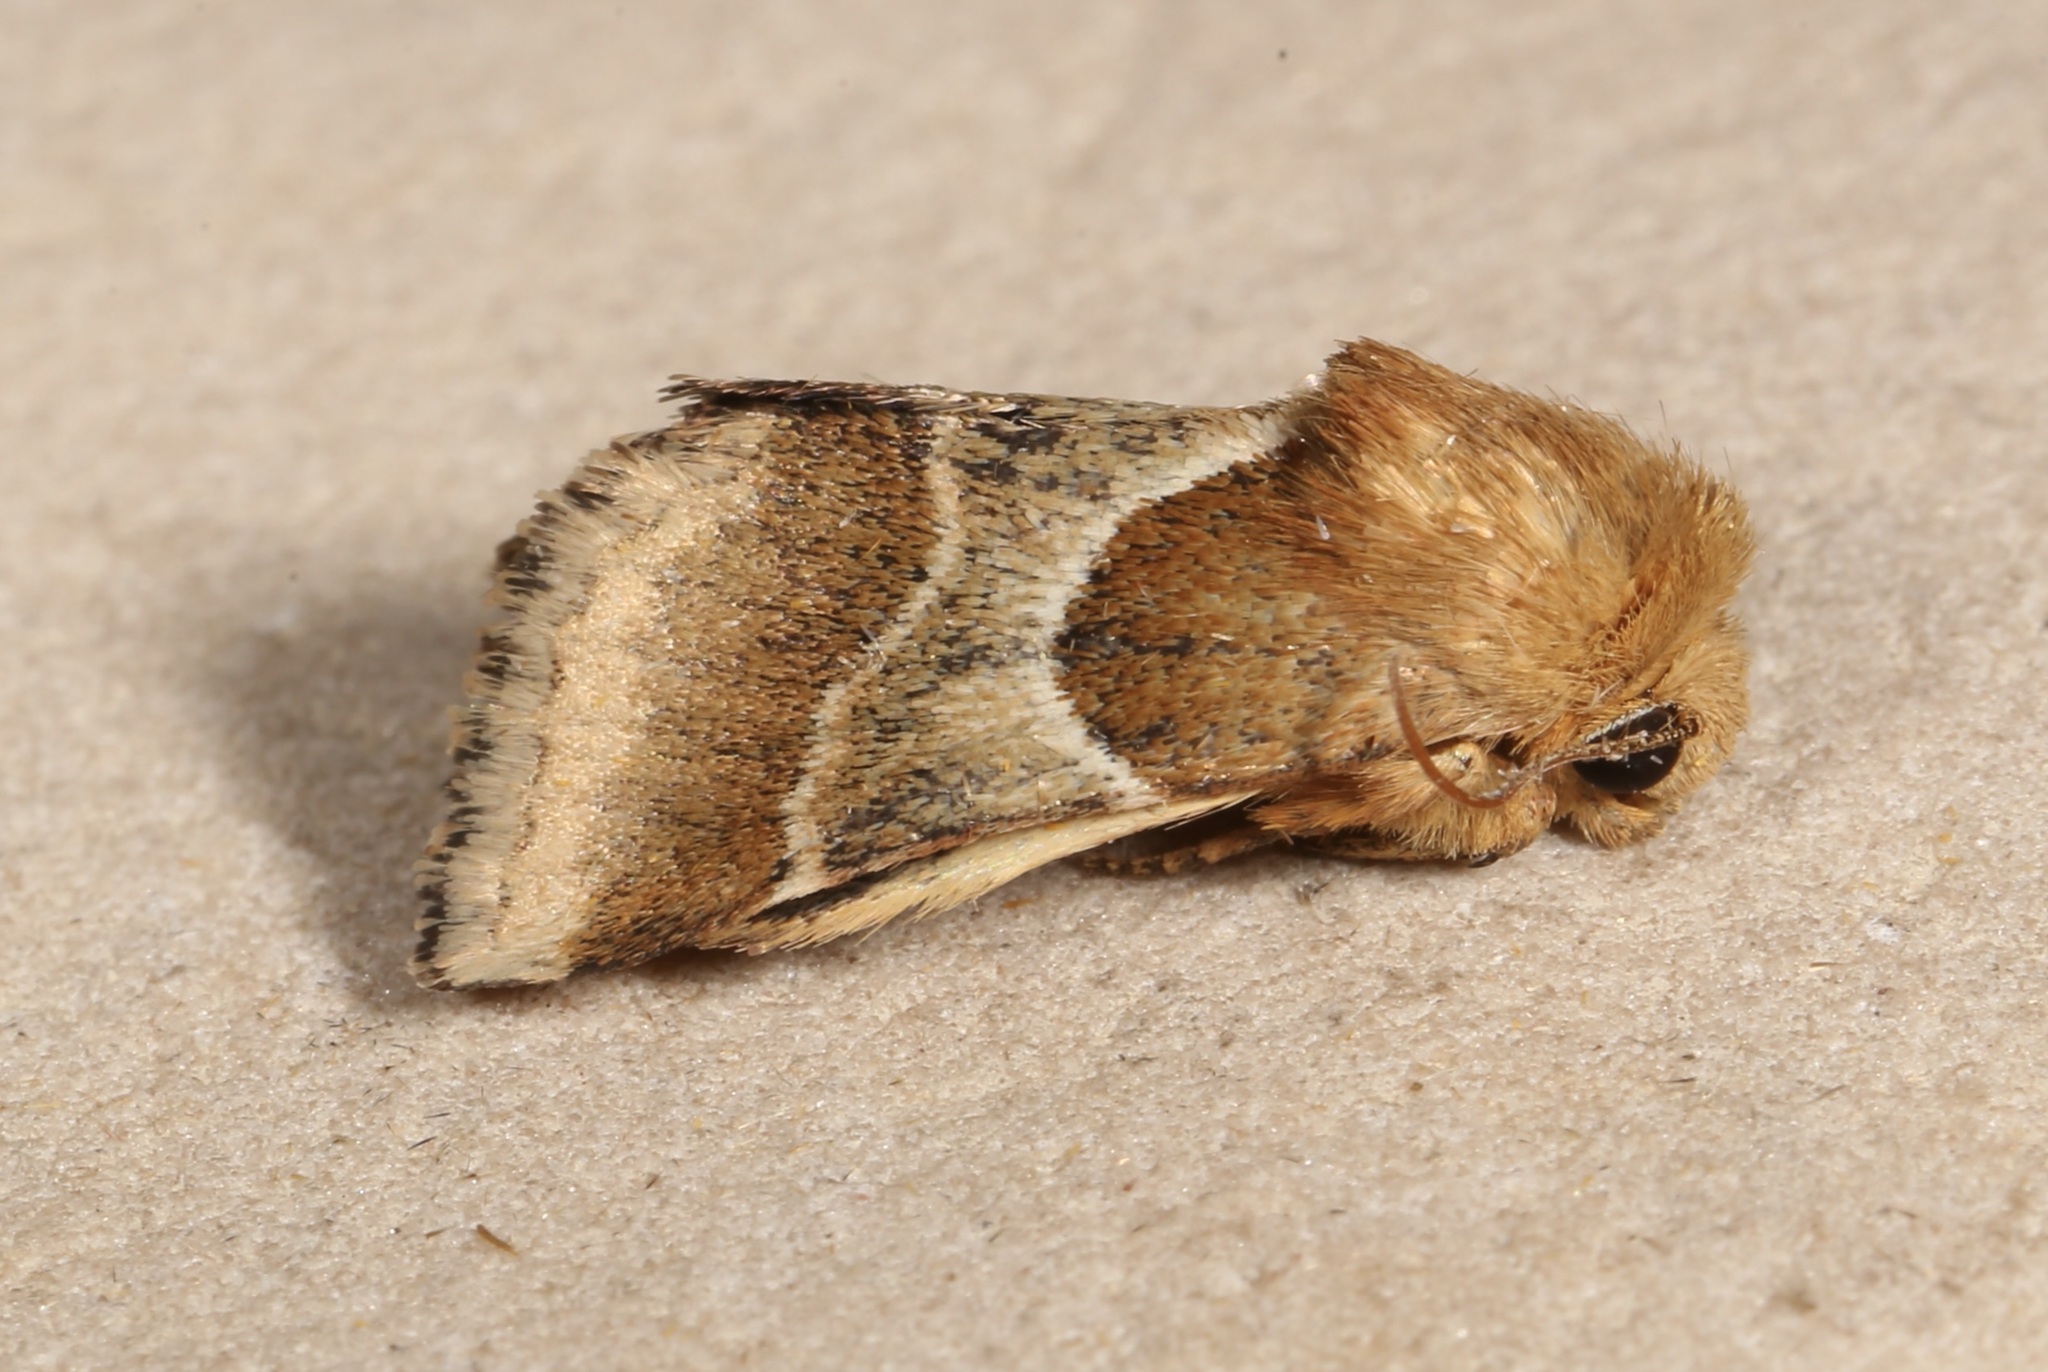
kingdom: Animalia
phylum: Arthropoda
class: Insecta
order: Lepidoptera
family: Noctuidae
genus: Schinia
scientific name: Schinia arcigera
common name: Arcigera flower moth
